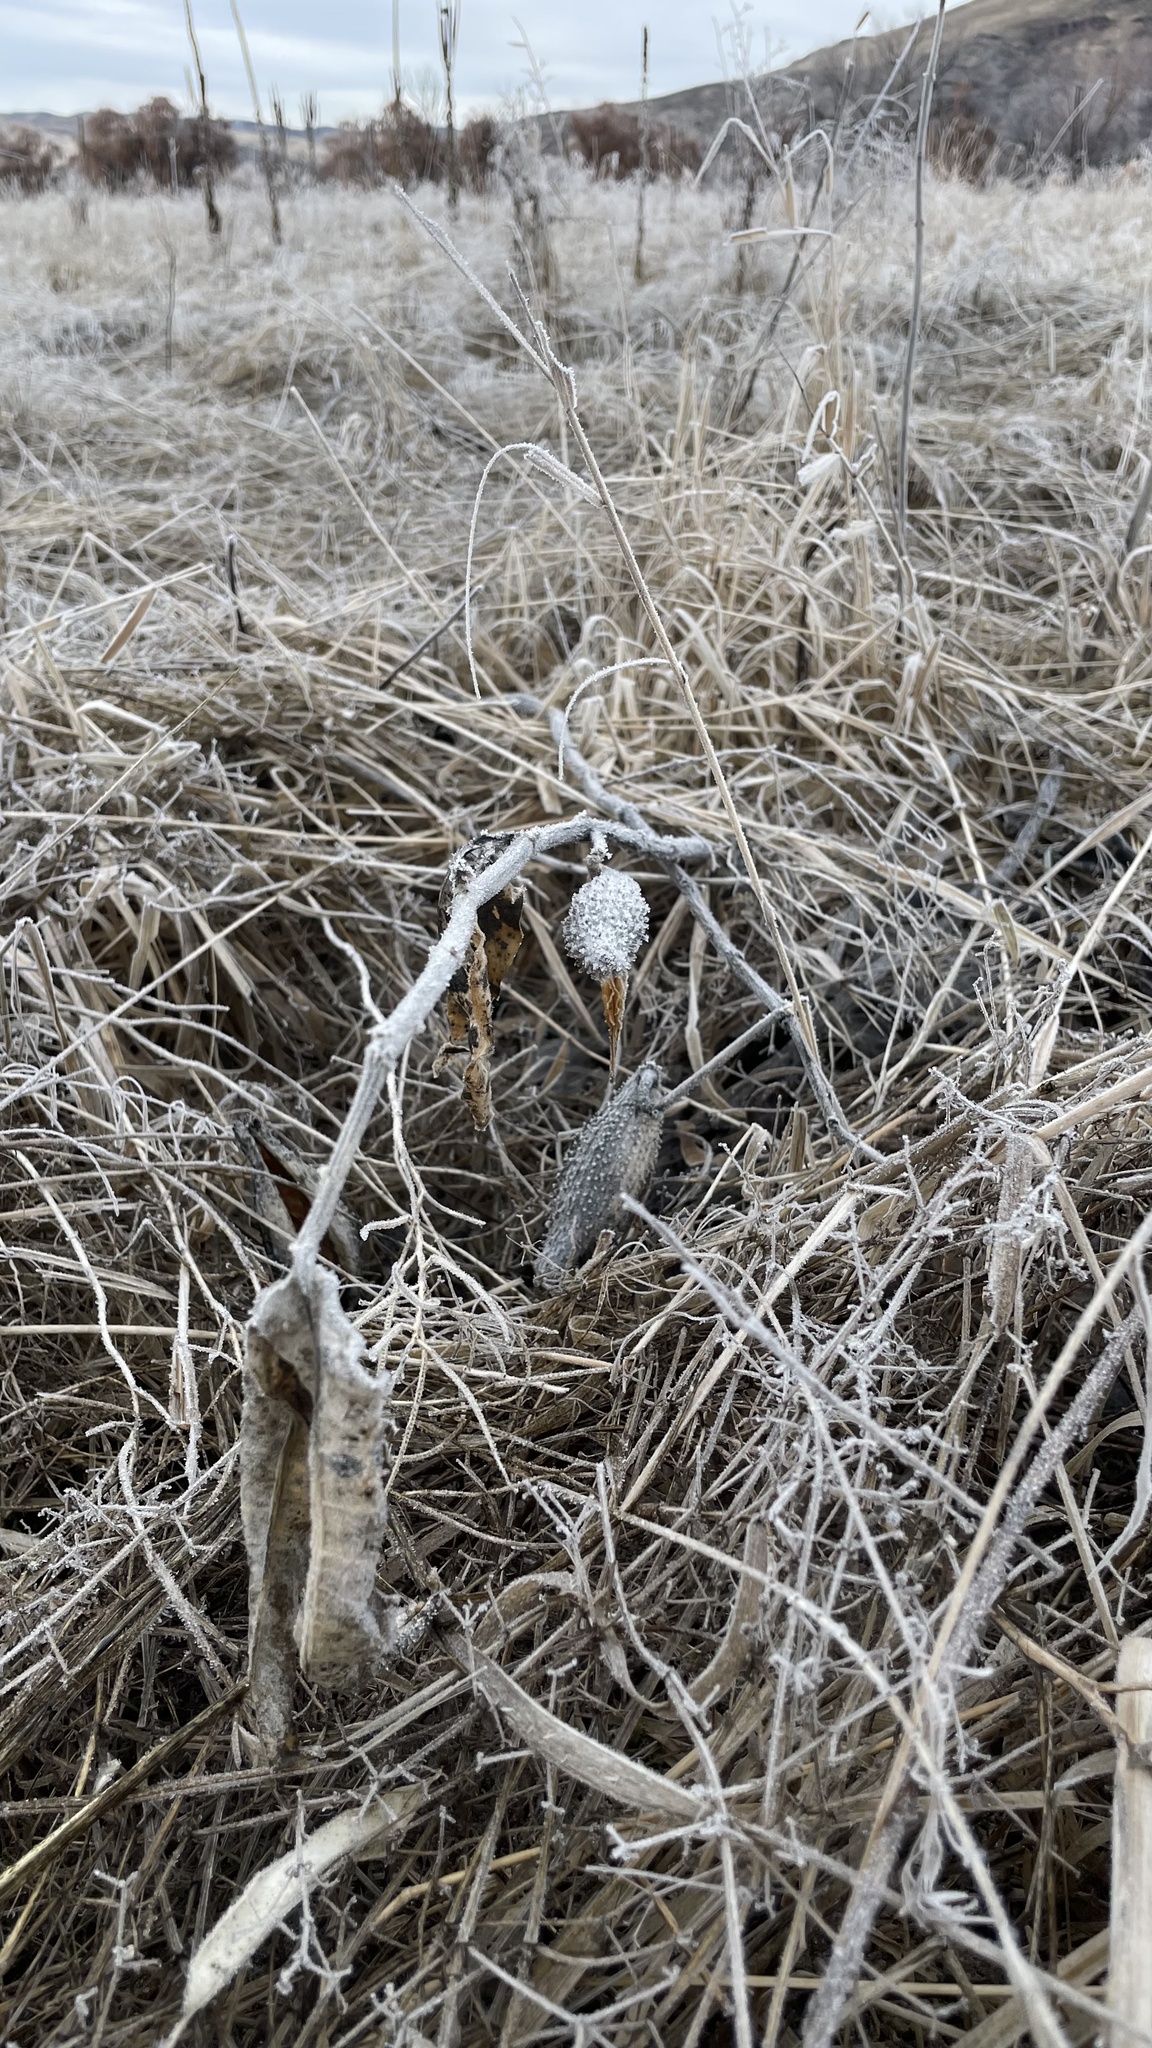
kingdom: Plantae
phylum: Tracheophyta
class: Magnoliopsida
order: Gentianales
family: Apocynaceae
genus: Asclepias
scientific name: Asclepias speciosa
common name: Showy milkweed
